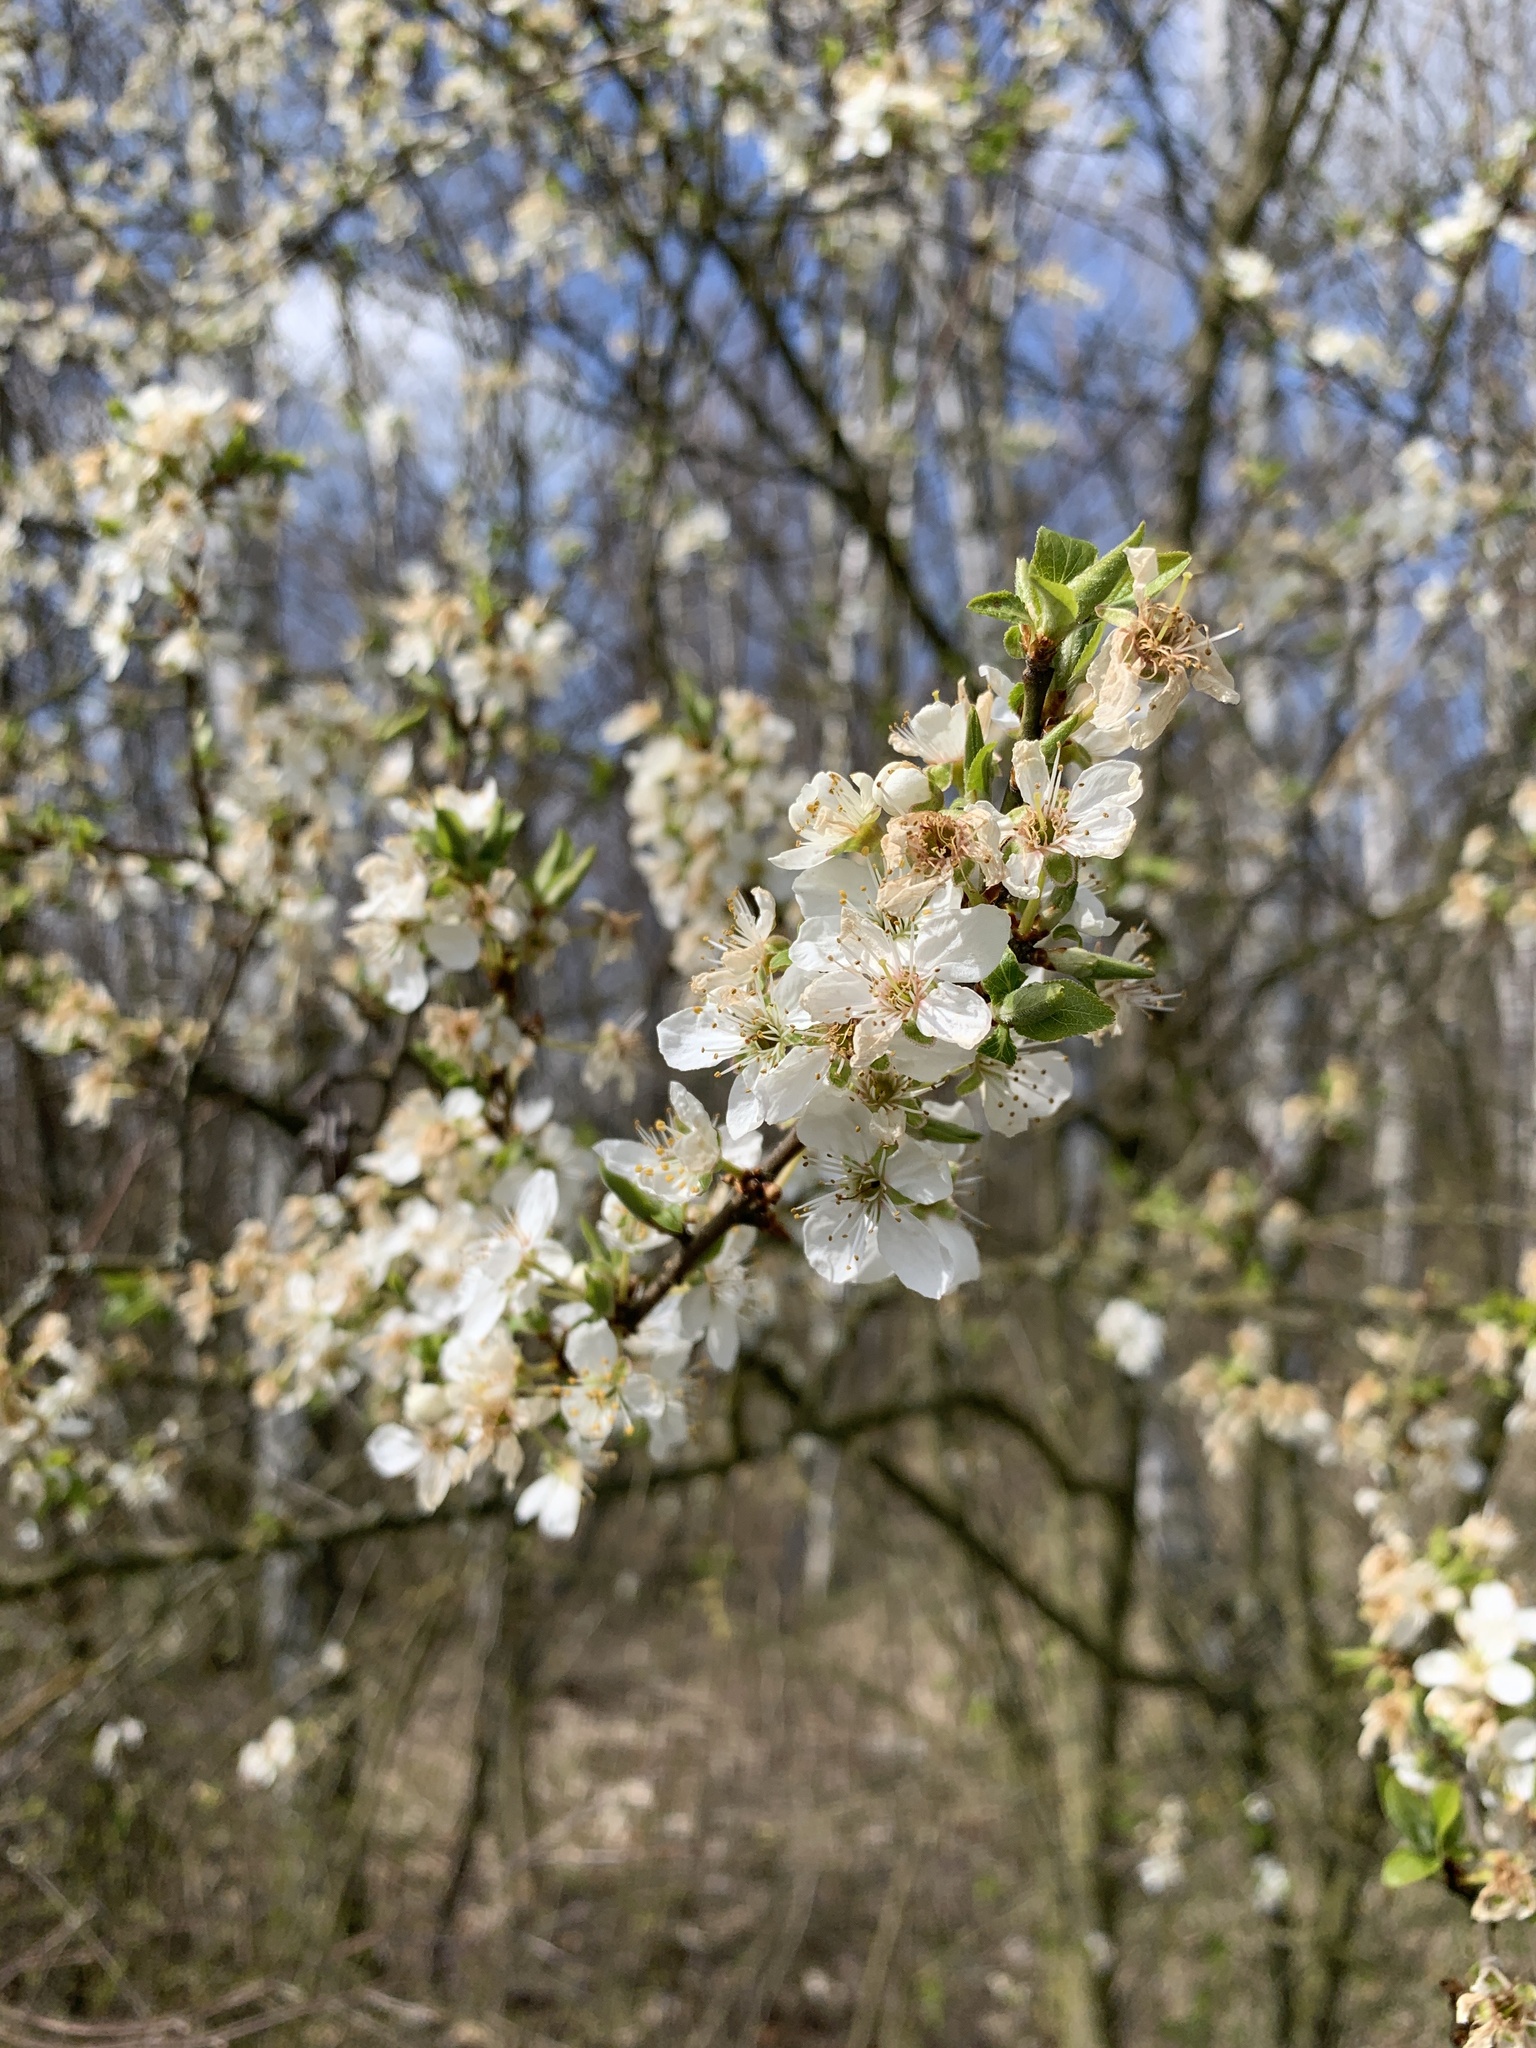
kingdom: Plantae
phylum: Tracheophyta
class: Magnoliopsida
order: Rosales
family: Rosaceae
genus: Prunus
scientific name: Prunus cerasifera
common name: Cherry plum
